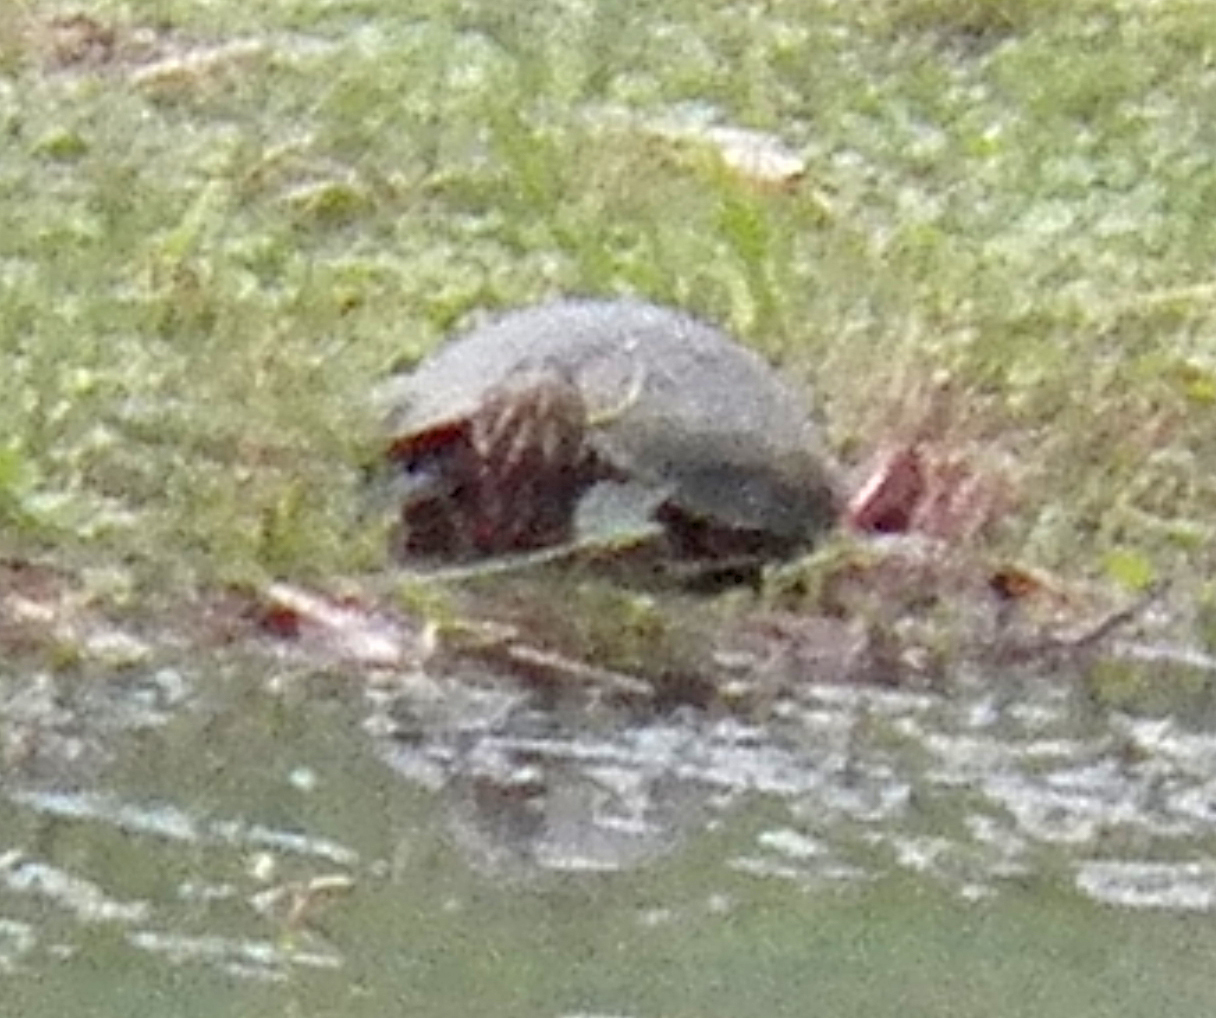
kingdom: Animalia
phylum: Chordata
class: Testudines
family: Emydidae
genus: Trachemys
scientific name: Trachemys scripta
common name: Slider
